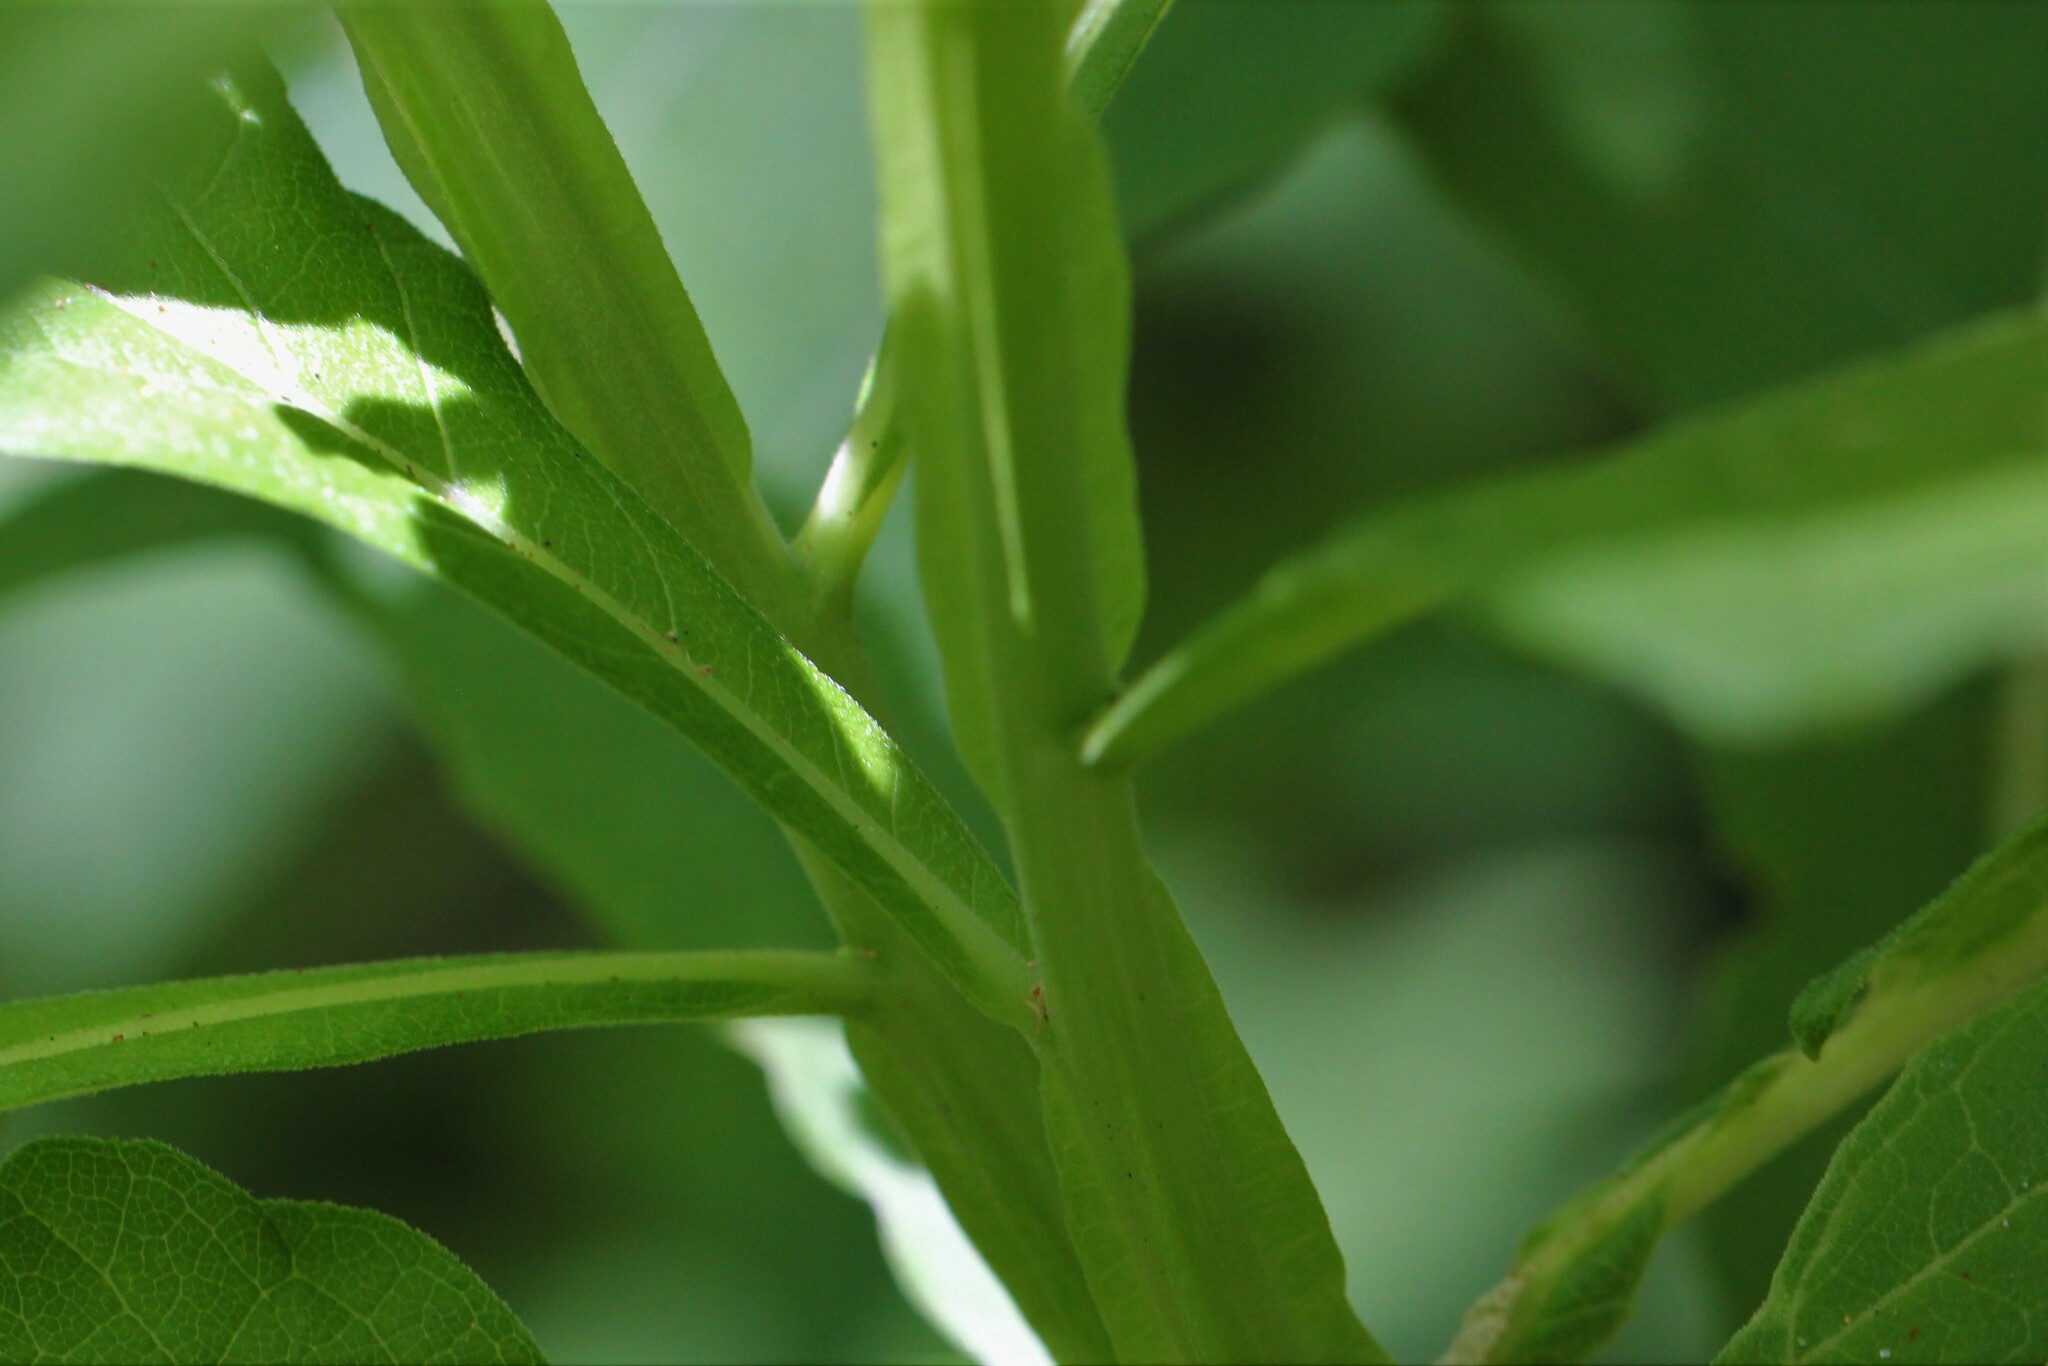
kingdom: Plantae
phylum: Tracheophyta
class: Magnoliopsida
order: Fabales
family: Fabaceae
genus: Guilandina
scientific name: Guilandina bonduc
